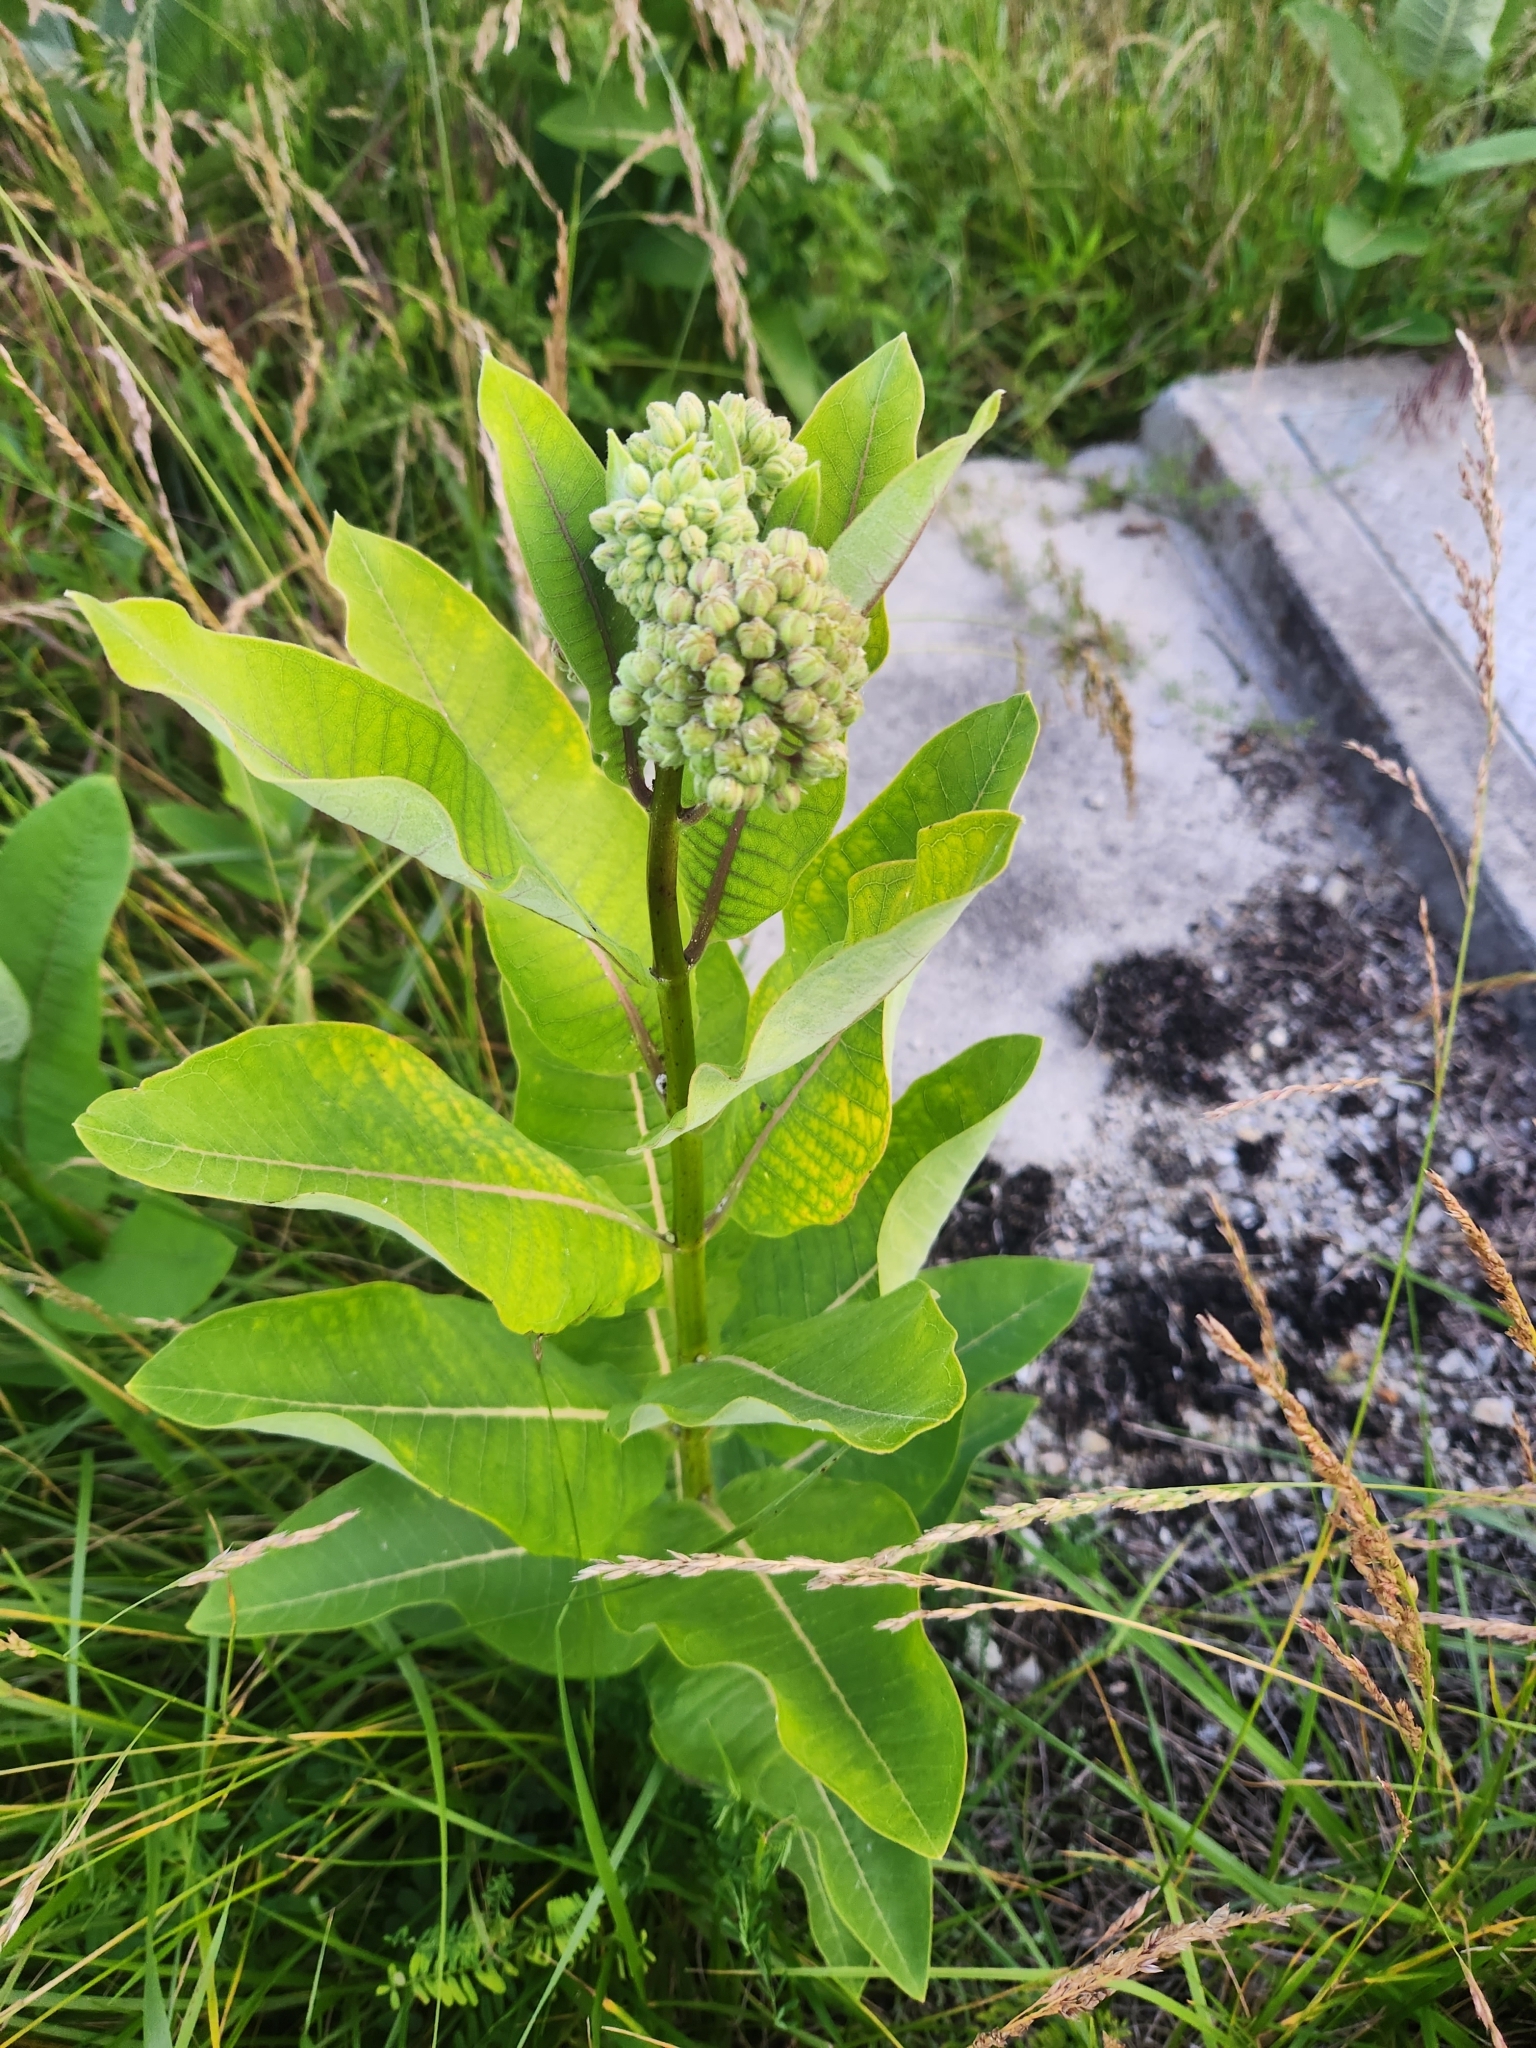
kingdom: Plantae
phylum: Tracheophyta
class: Magnoliopsida
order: Gentianales
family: Apocynaceae
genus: Asclepias
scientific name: Asclepias syriaca
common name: Common milkweed
